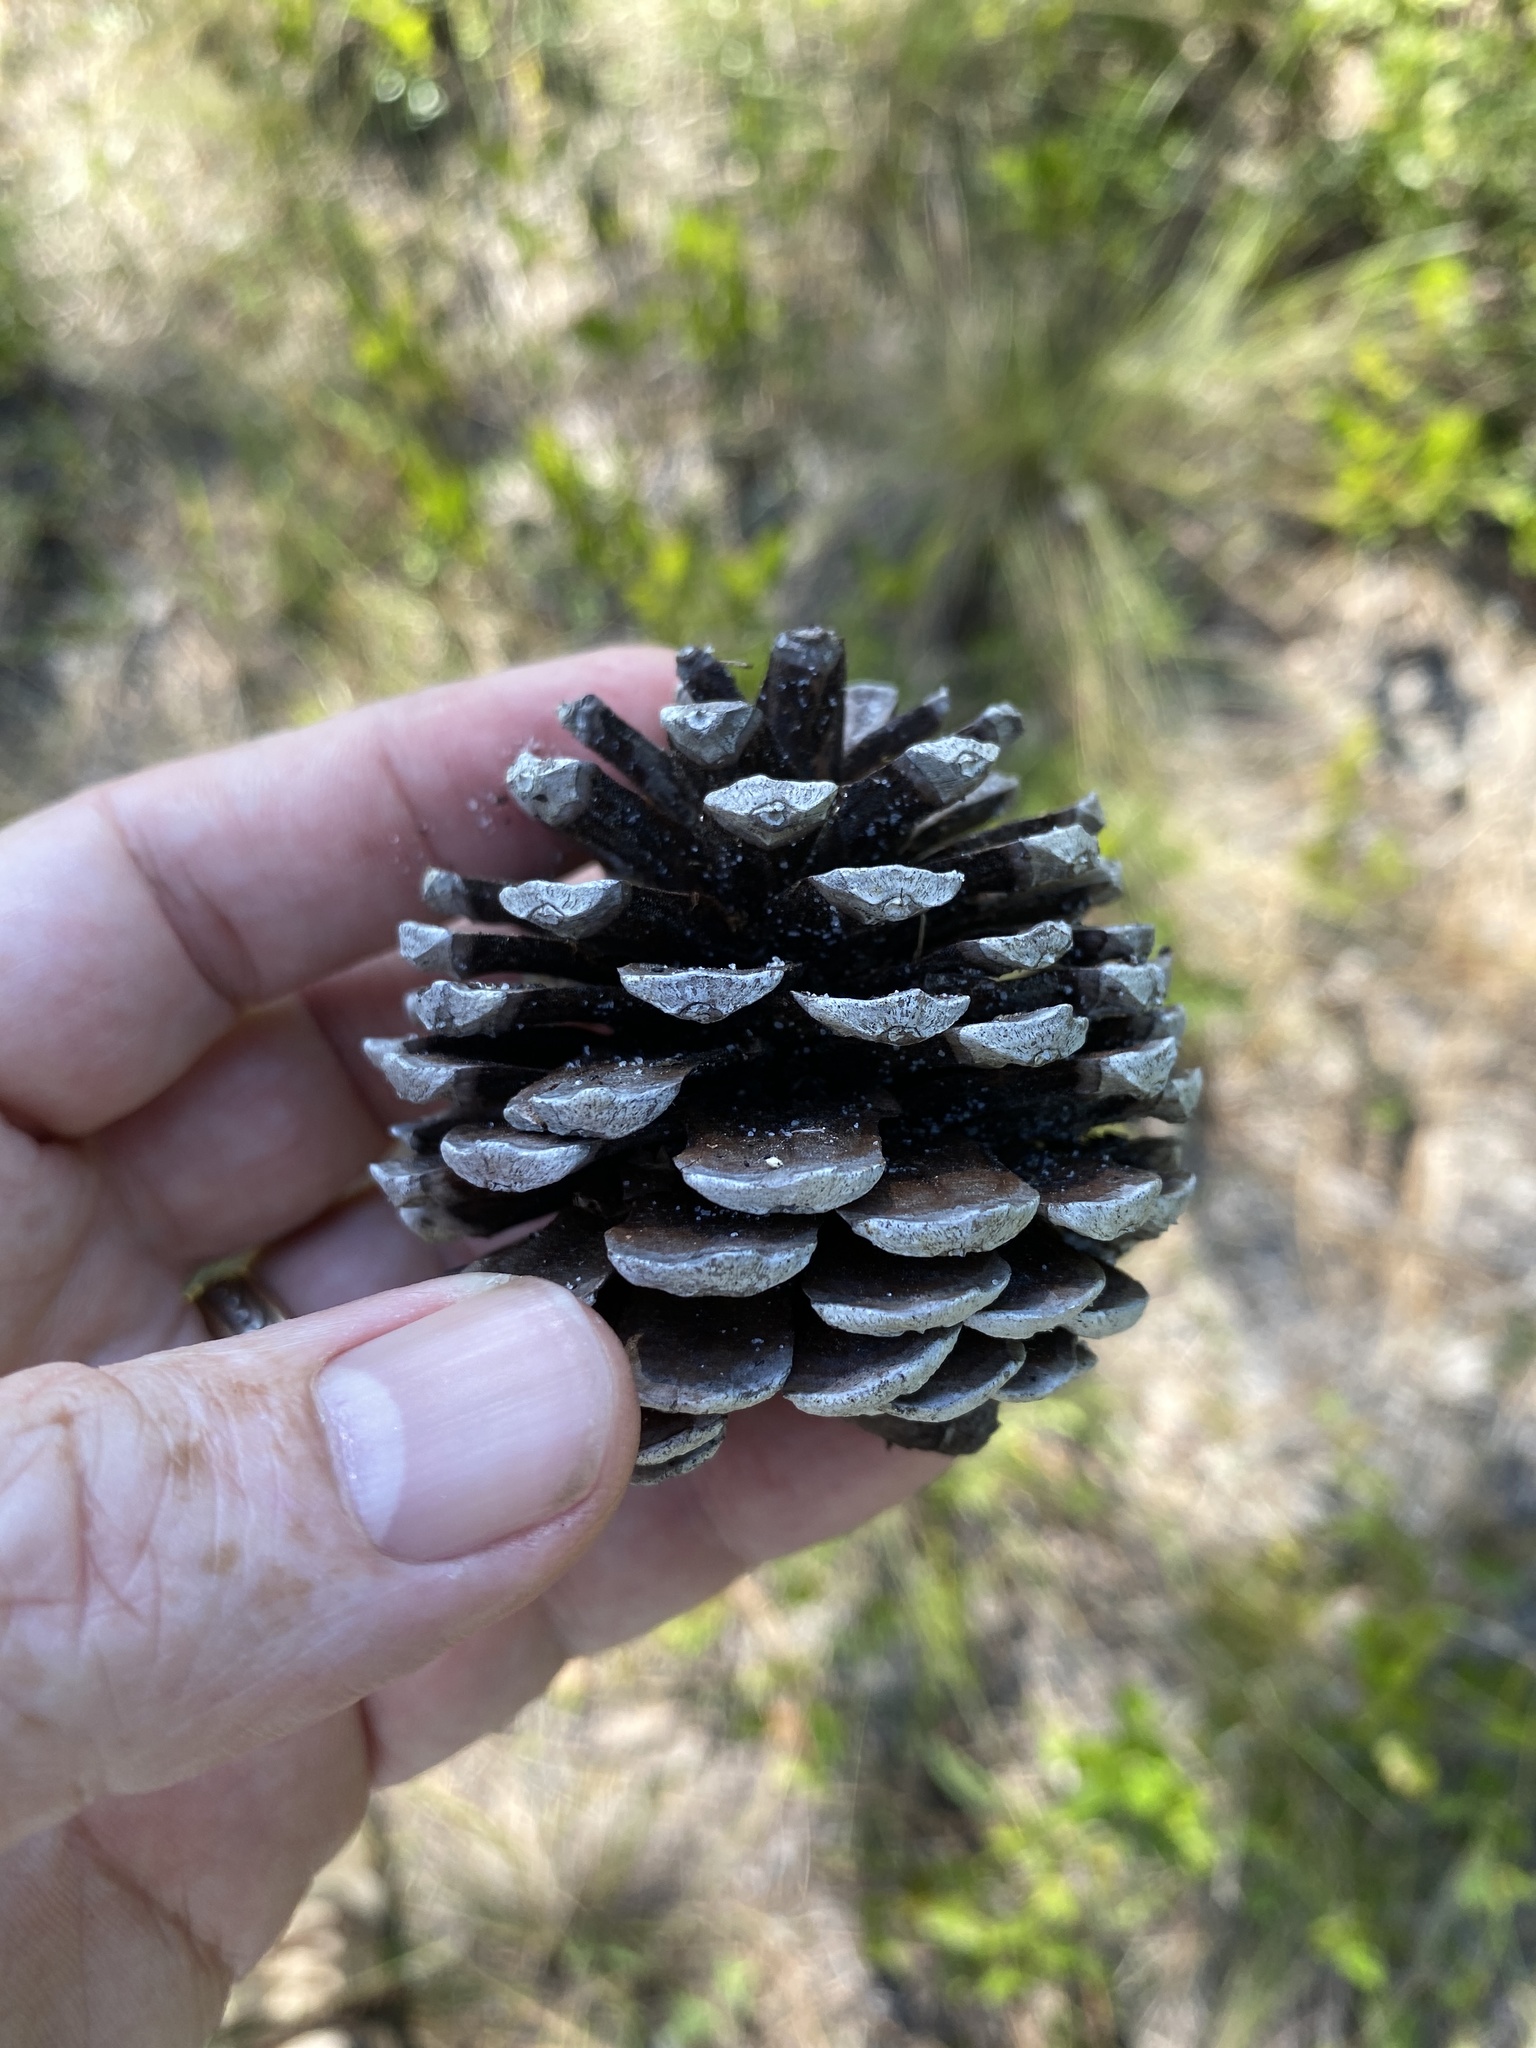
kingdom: Plantae
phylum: Tracheophyta
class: Pinopsida
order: Pinales
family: Pinaceae
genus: Pinus
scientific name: Pinus serotina
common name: Marsh pine
